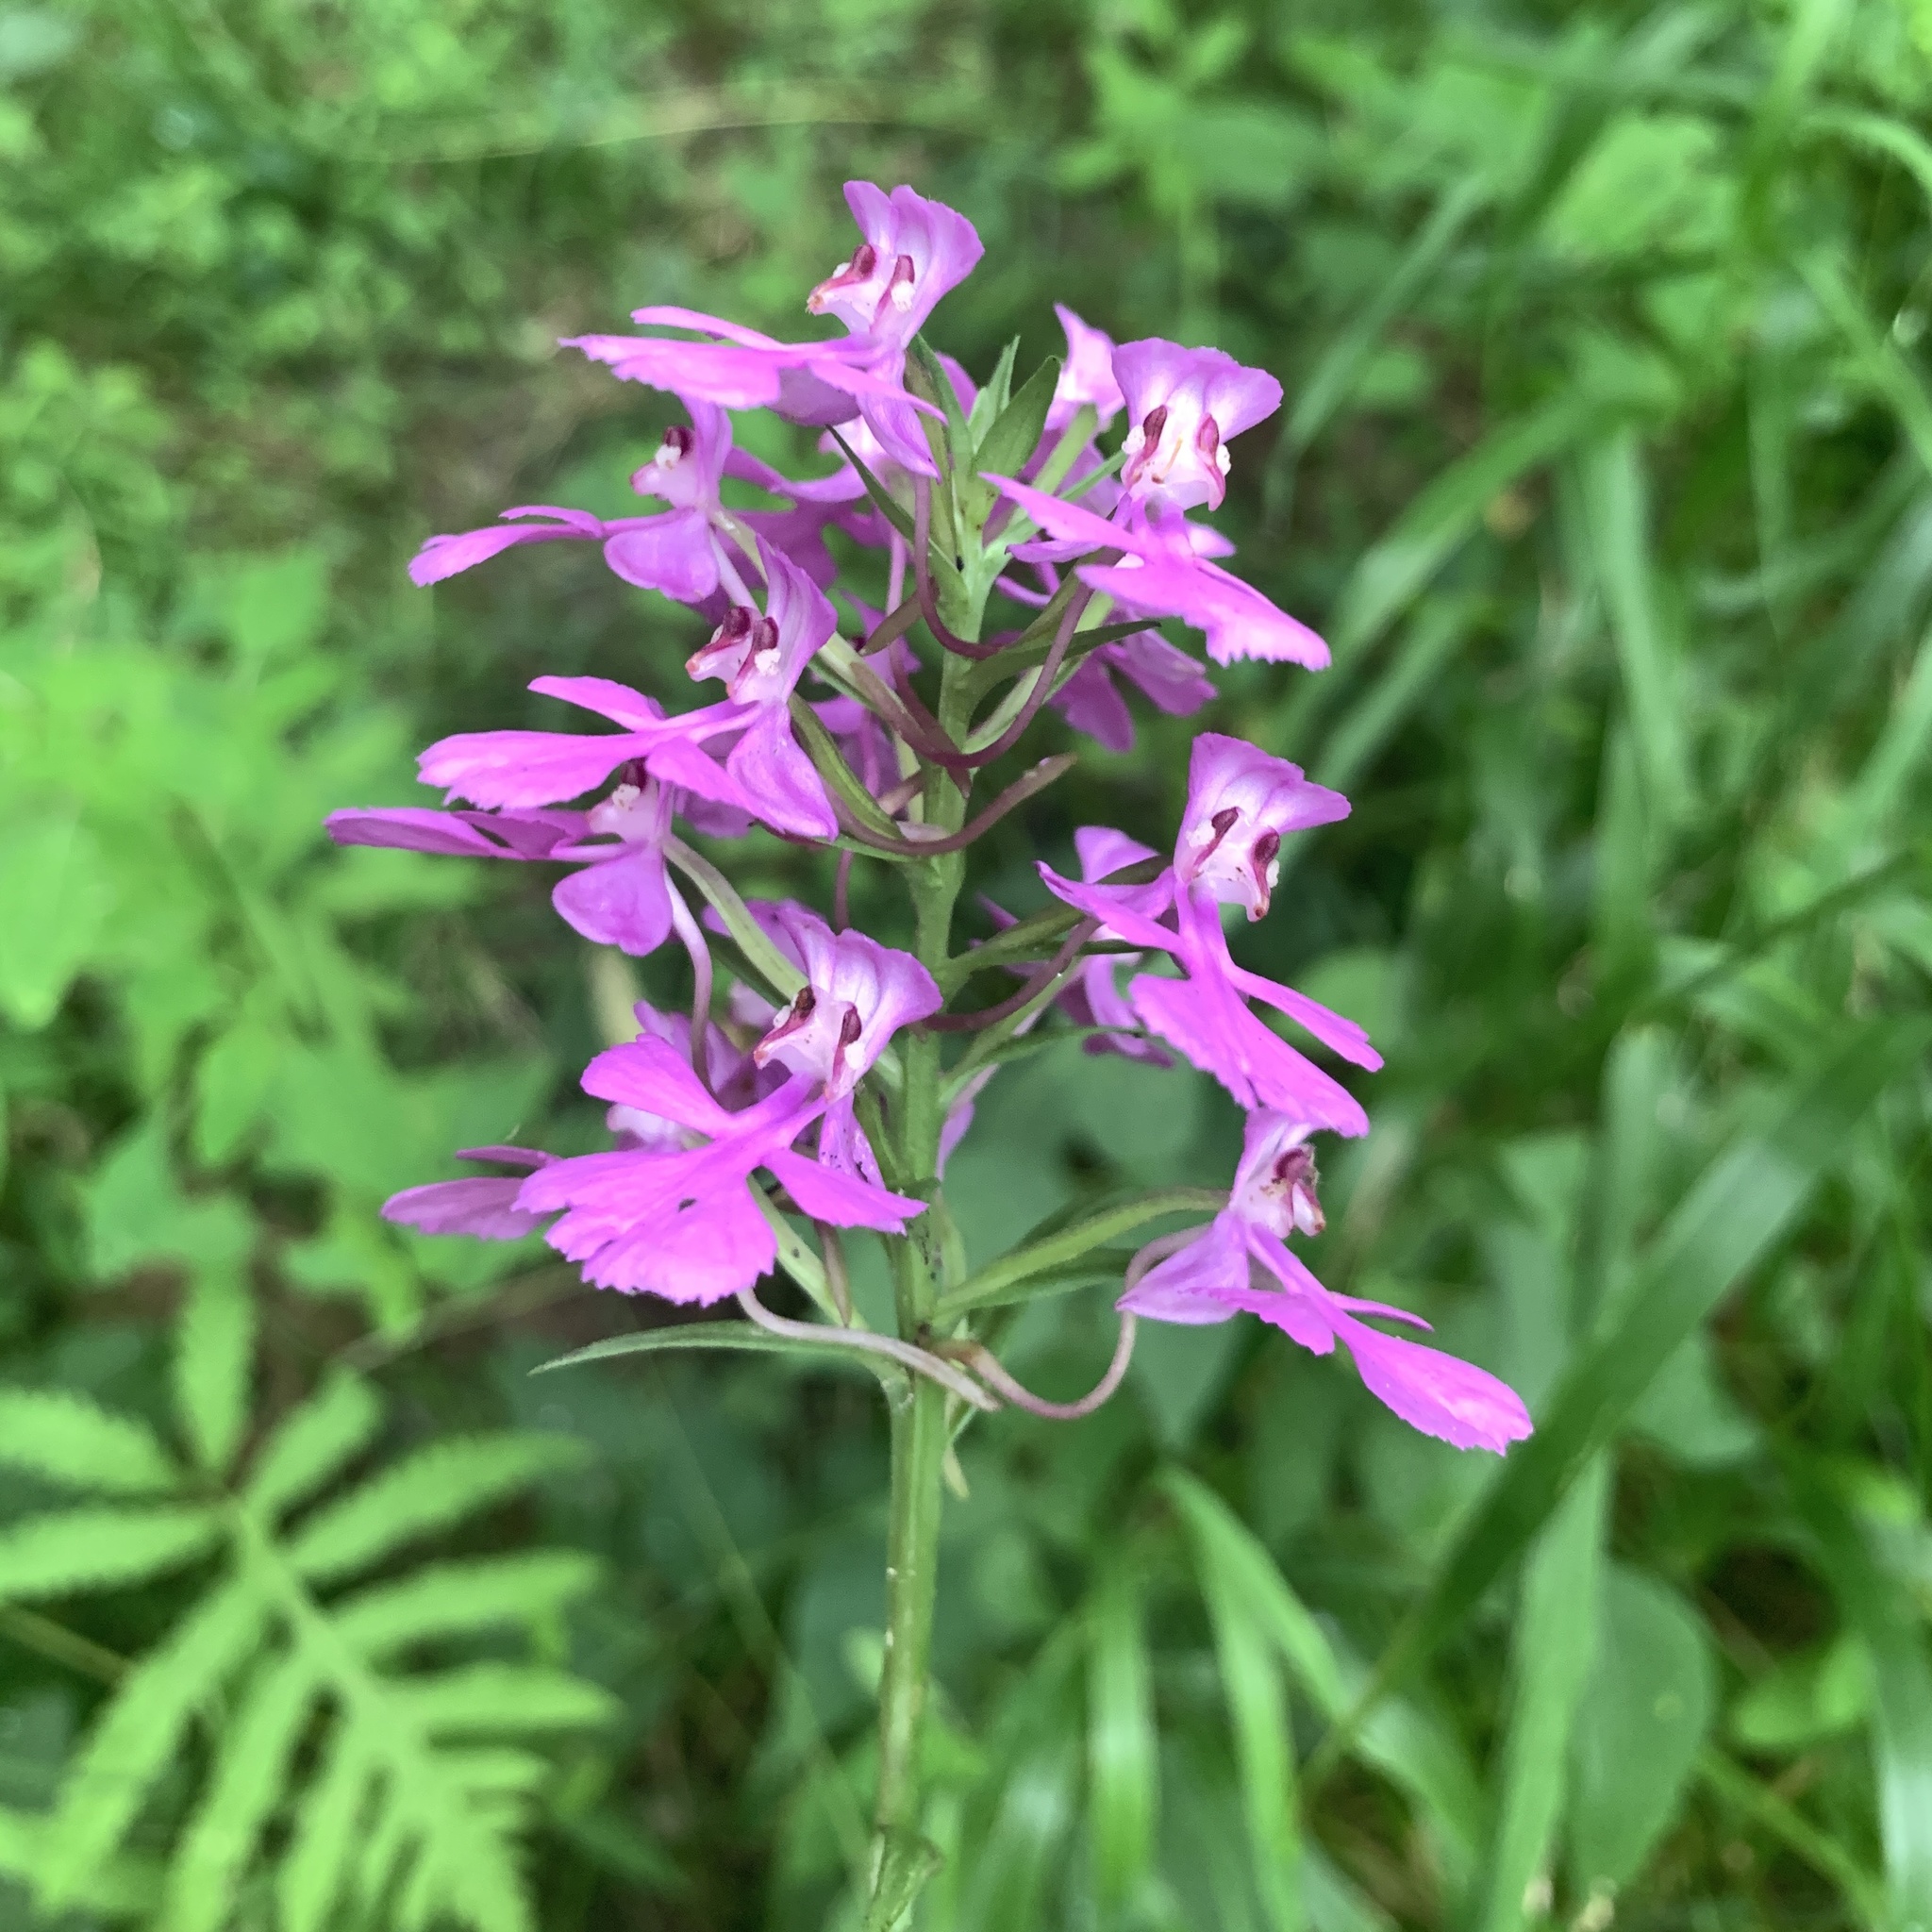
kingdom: Plantae
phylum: Tracheophyta
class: Liliopsida
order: Asparagales
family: Orchidaceae
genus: Platanthera
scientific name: Platanthera peramoena
